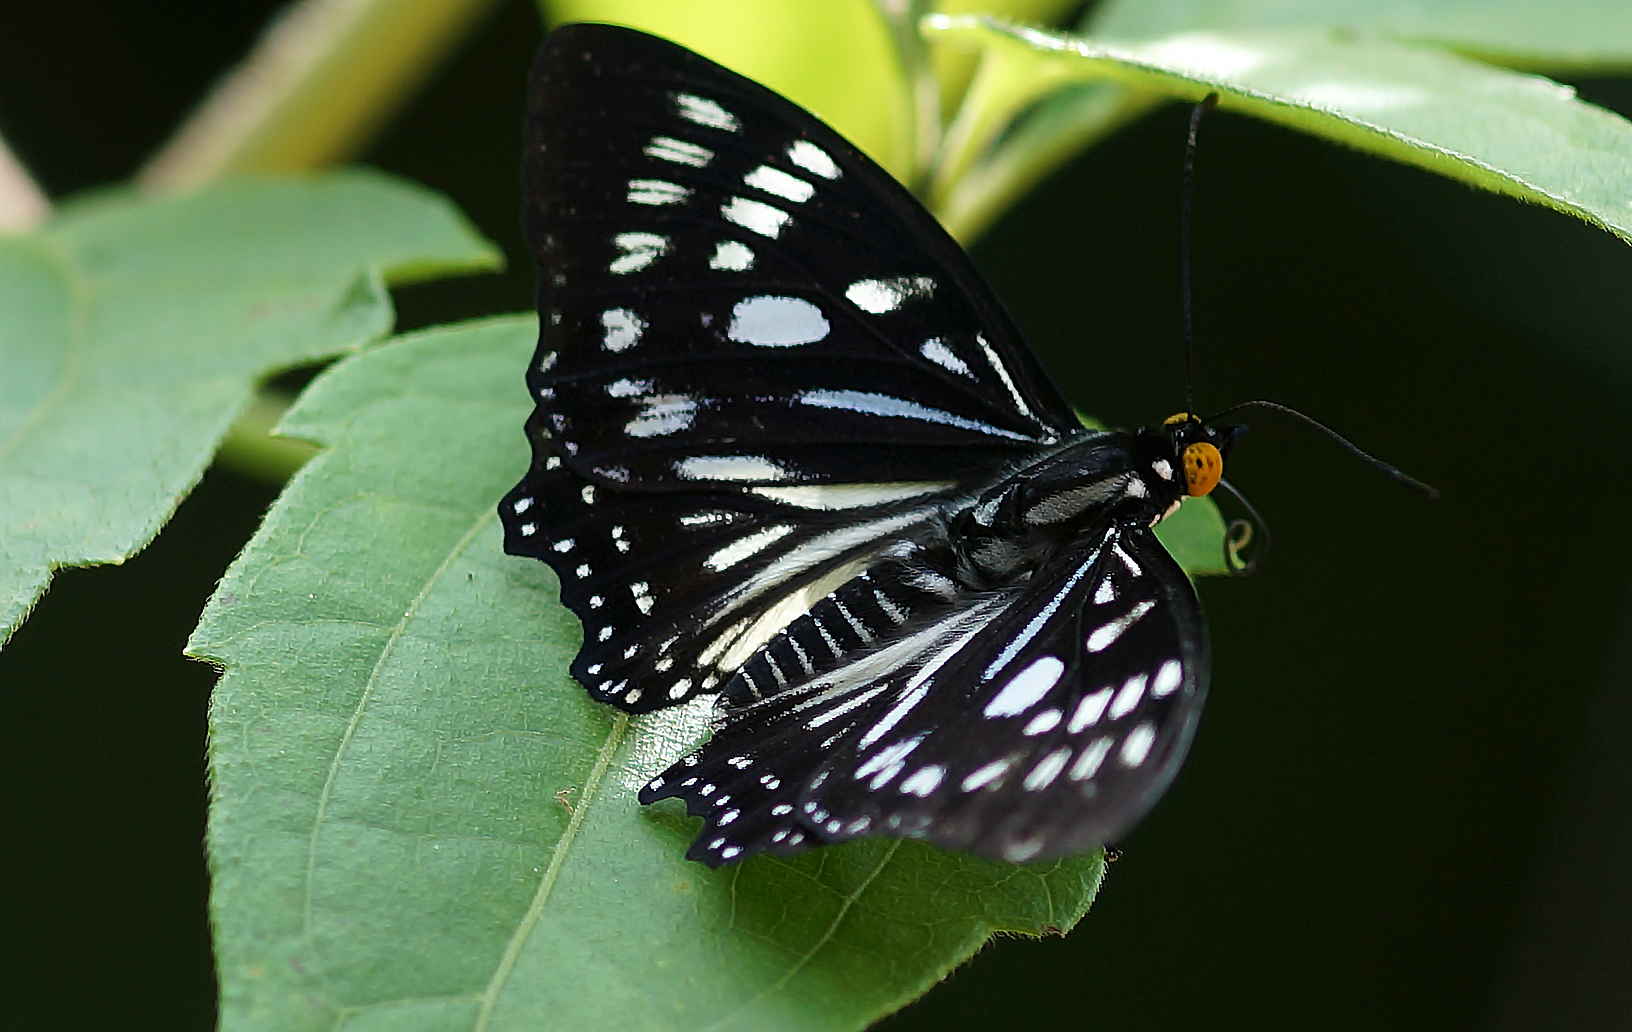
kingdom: Animalia
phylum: Arthropoda
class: Insecta
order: Lepidoptera
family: Nymphalidae
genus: Euripus
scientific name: Euripus nyctelius
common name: Courtesan
